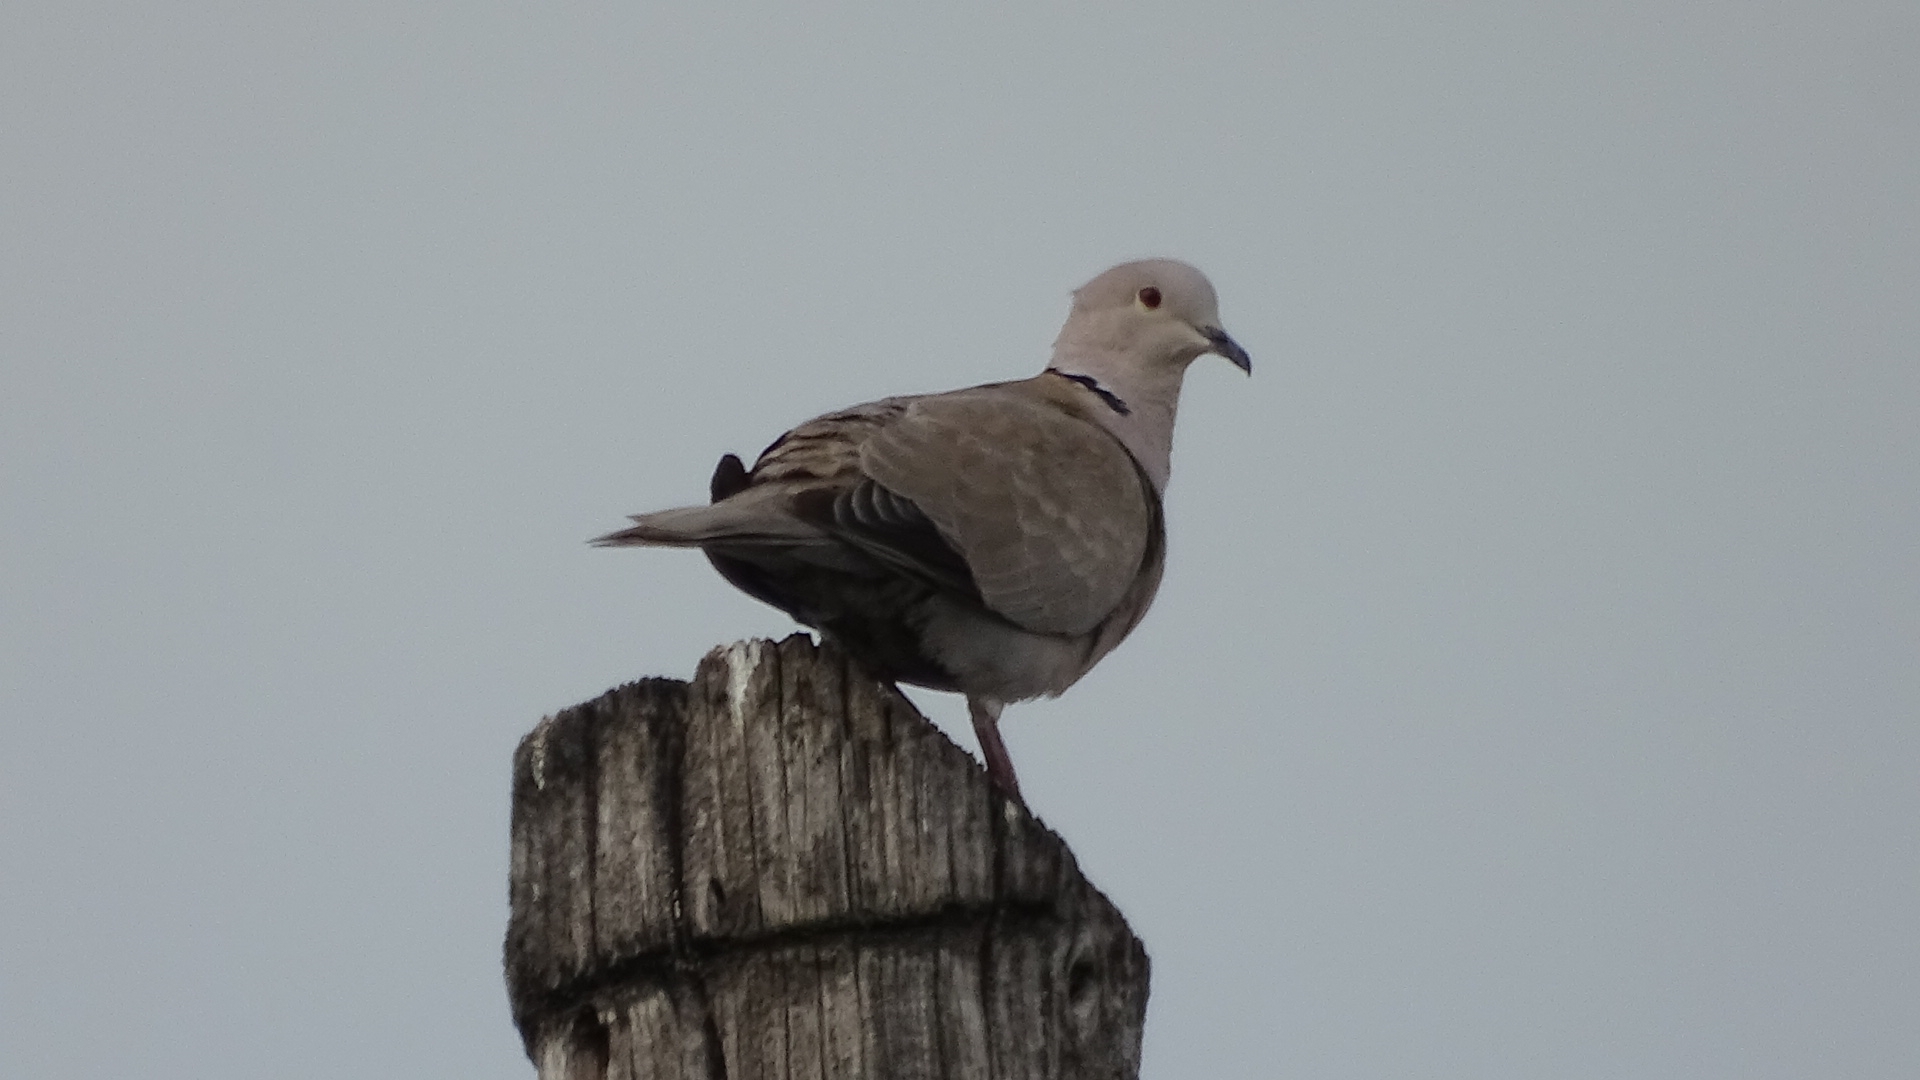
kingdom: Animalia
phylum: Chordata
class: Aves
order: Columbiformes
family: Columbidae
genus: Streptopelia
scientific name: Streptopelia decaocto
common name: Eurasian collared dove
